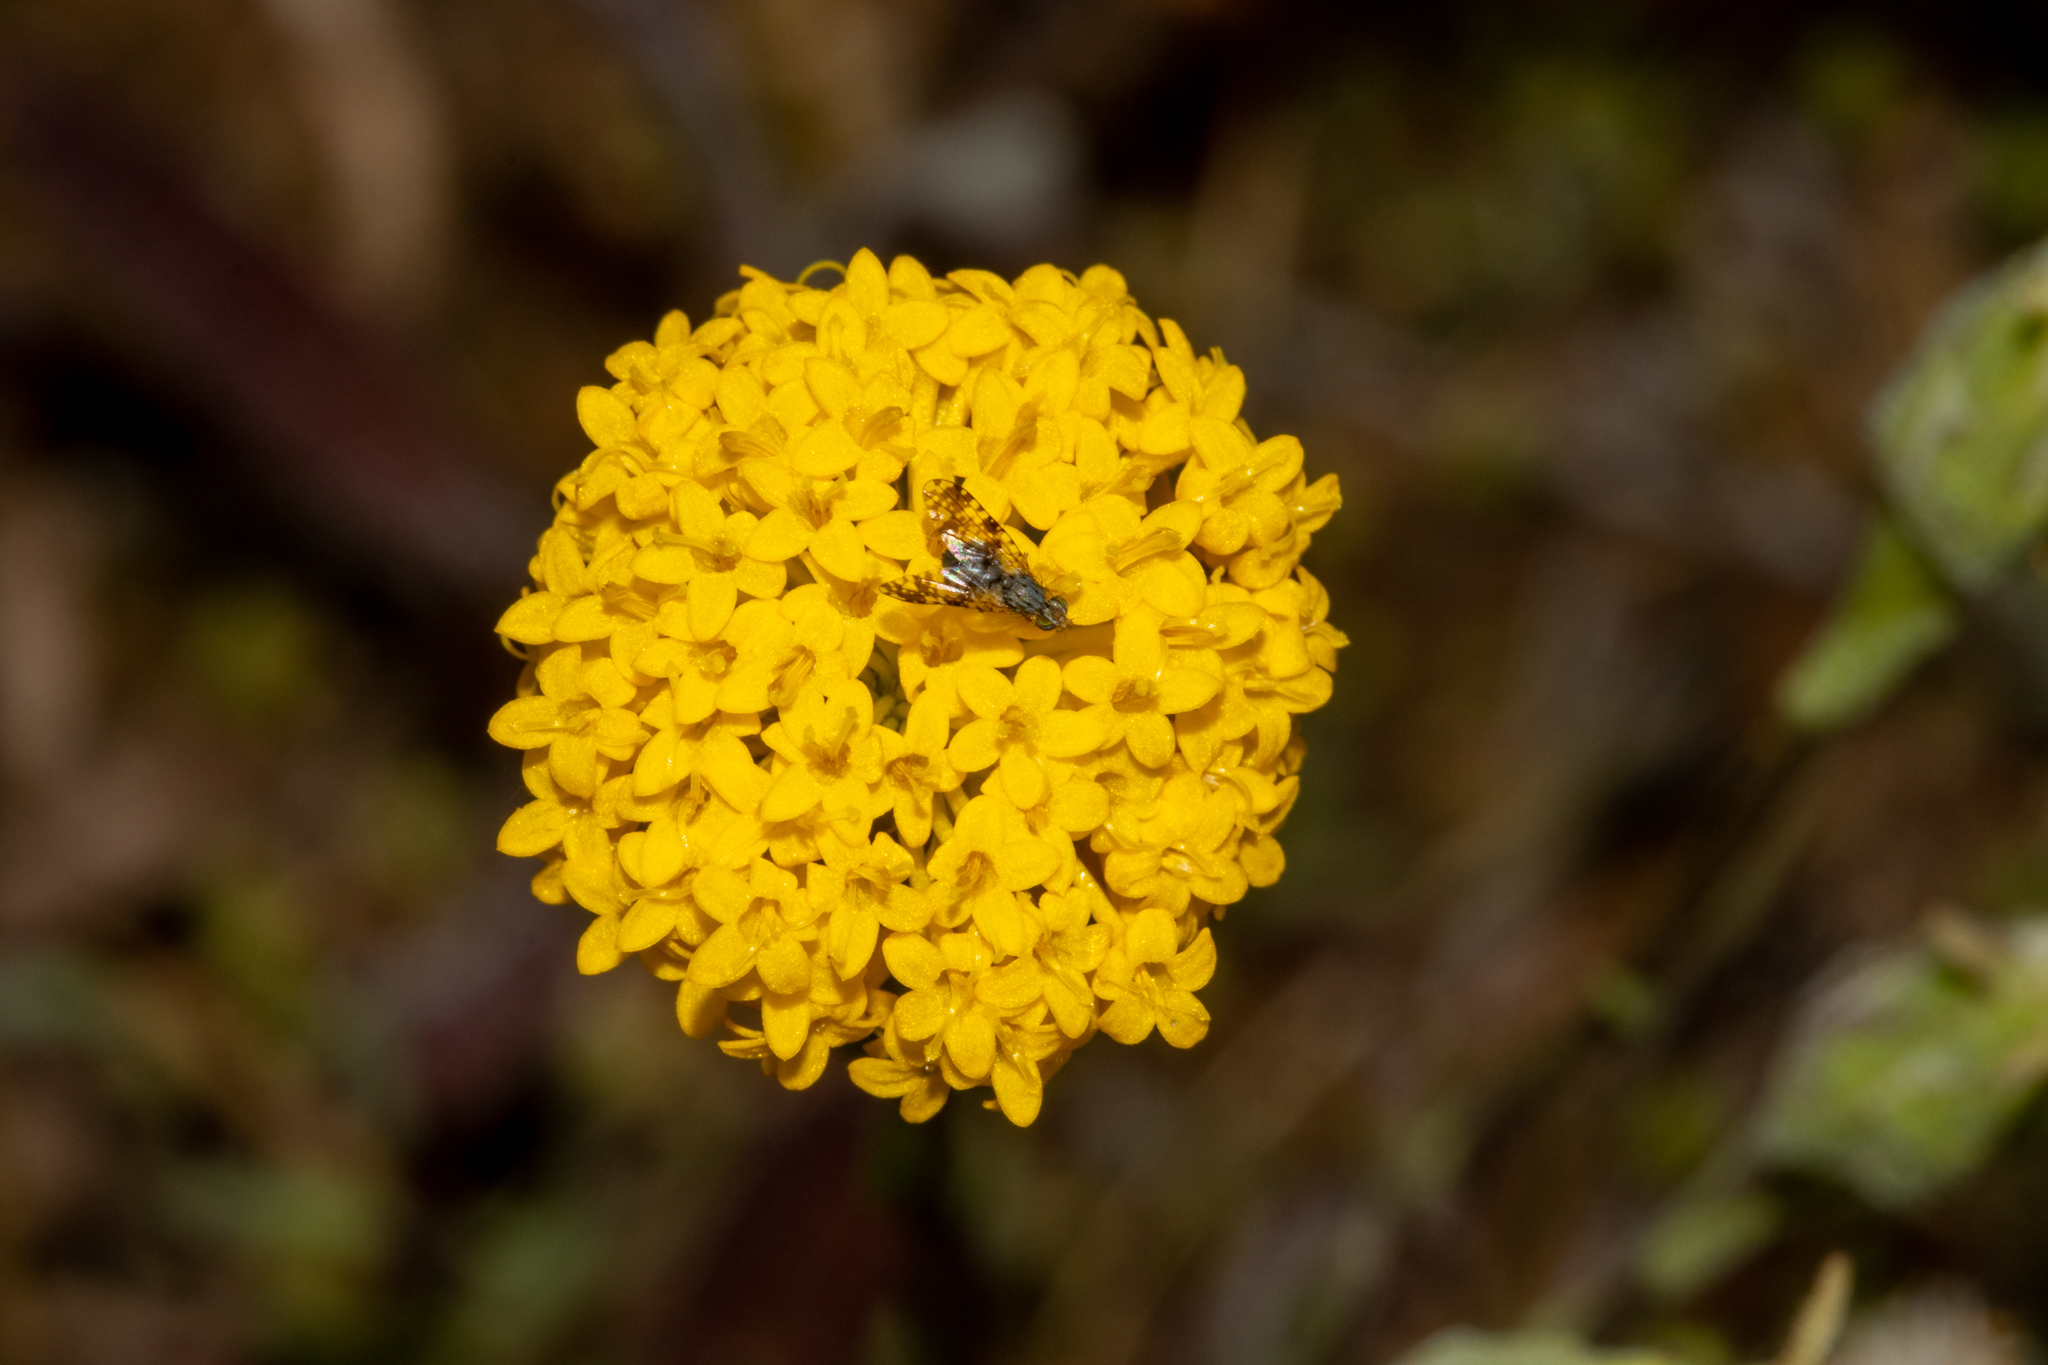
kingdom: Plantae
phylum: Tracheophyta
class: Magnoliopsida
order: Asterales
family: Asteraceae
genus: Podotheca
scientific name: Podotheca gnaphalioides
